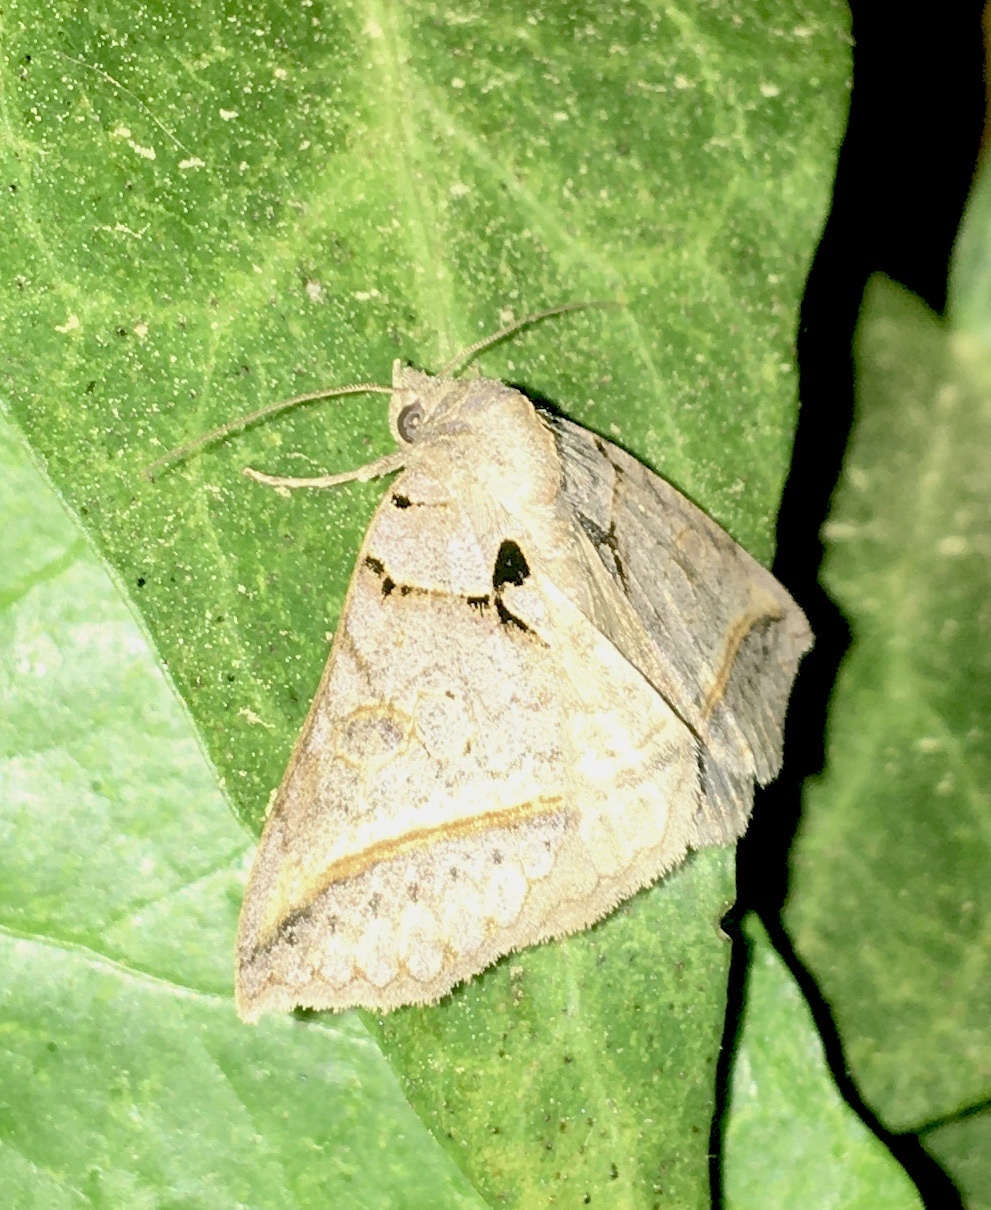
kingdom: Animalia
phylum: Arthropoda
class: Insecta
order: Lepidoptera
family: Erebidae
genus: Celiptera
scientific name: Celiptera frustulum
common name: Black bit moth
